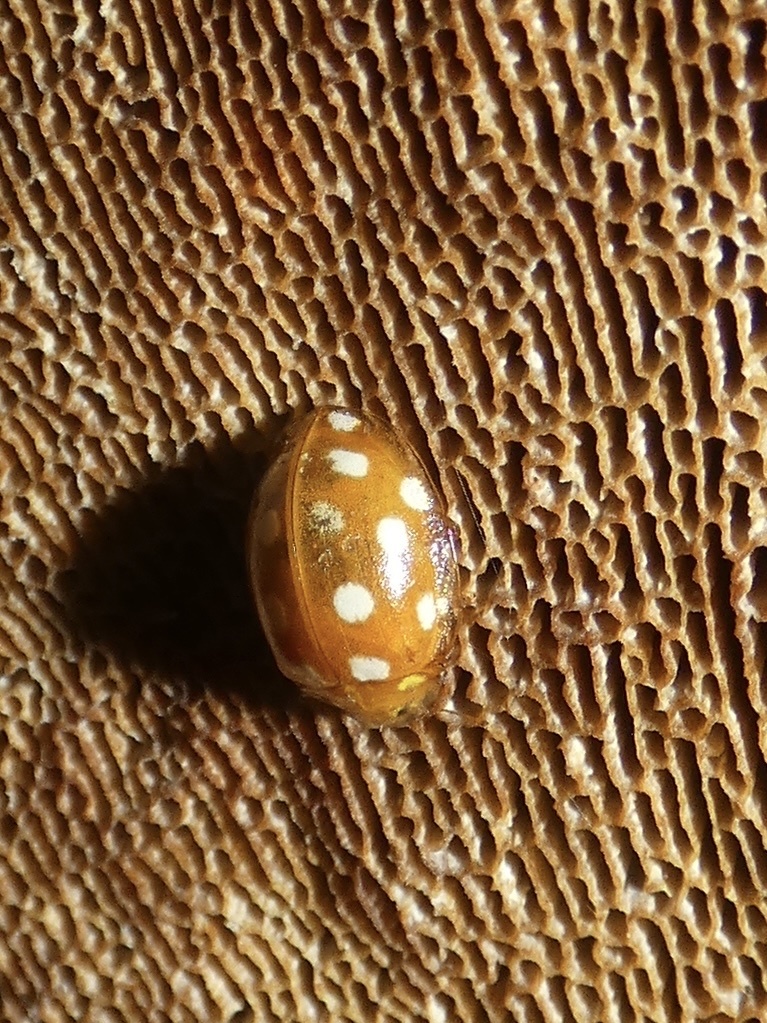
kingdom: Animalia
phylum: Arthropoda
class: Insecta
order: Coleoptera
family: Coccinellidae
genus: Halyzia
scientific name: Halyzia sedecimguttata
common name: Orange ladybird
